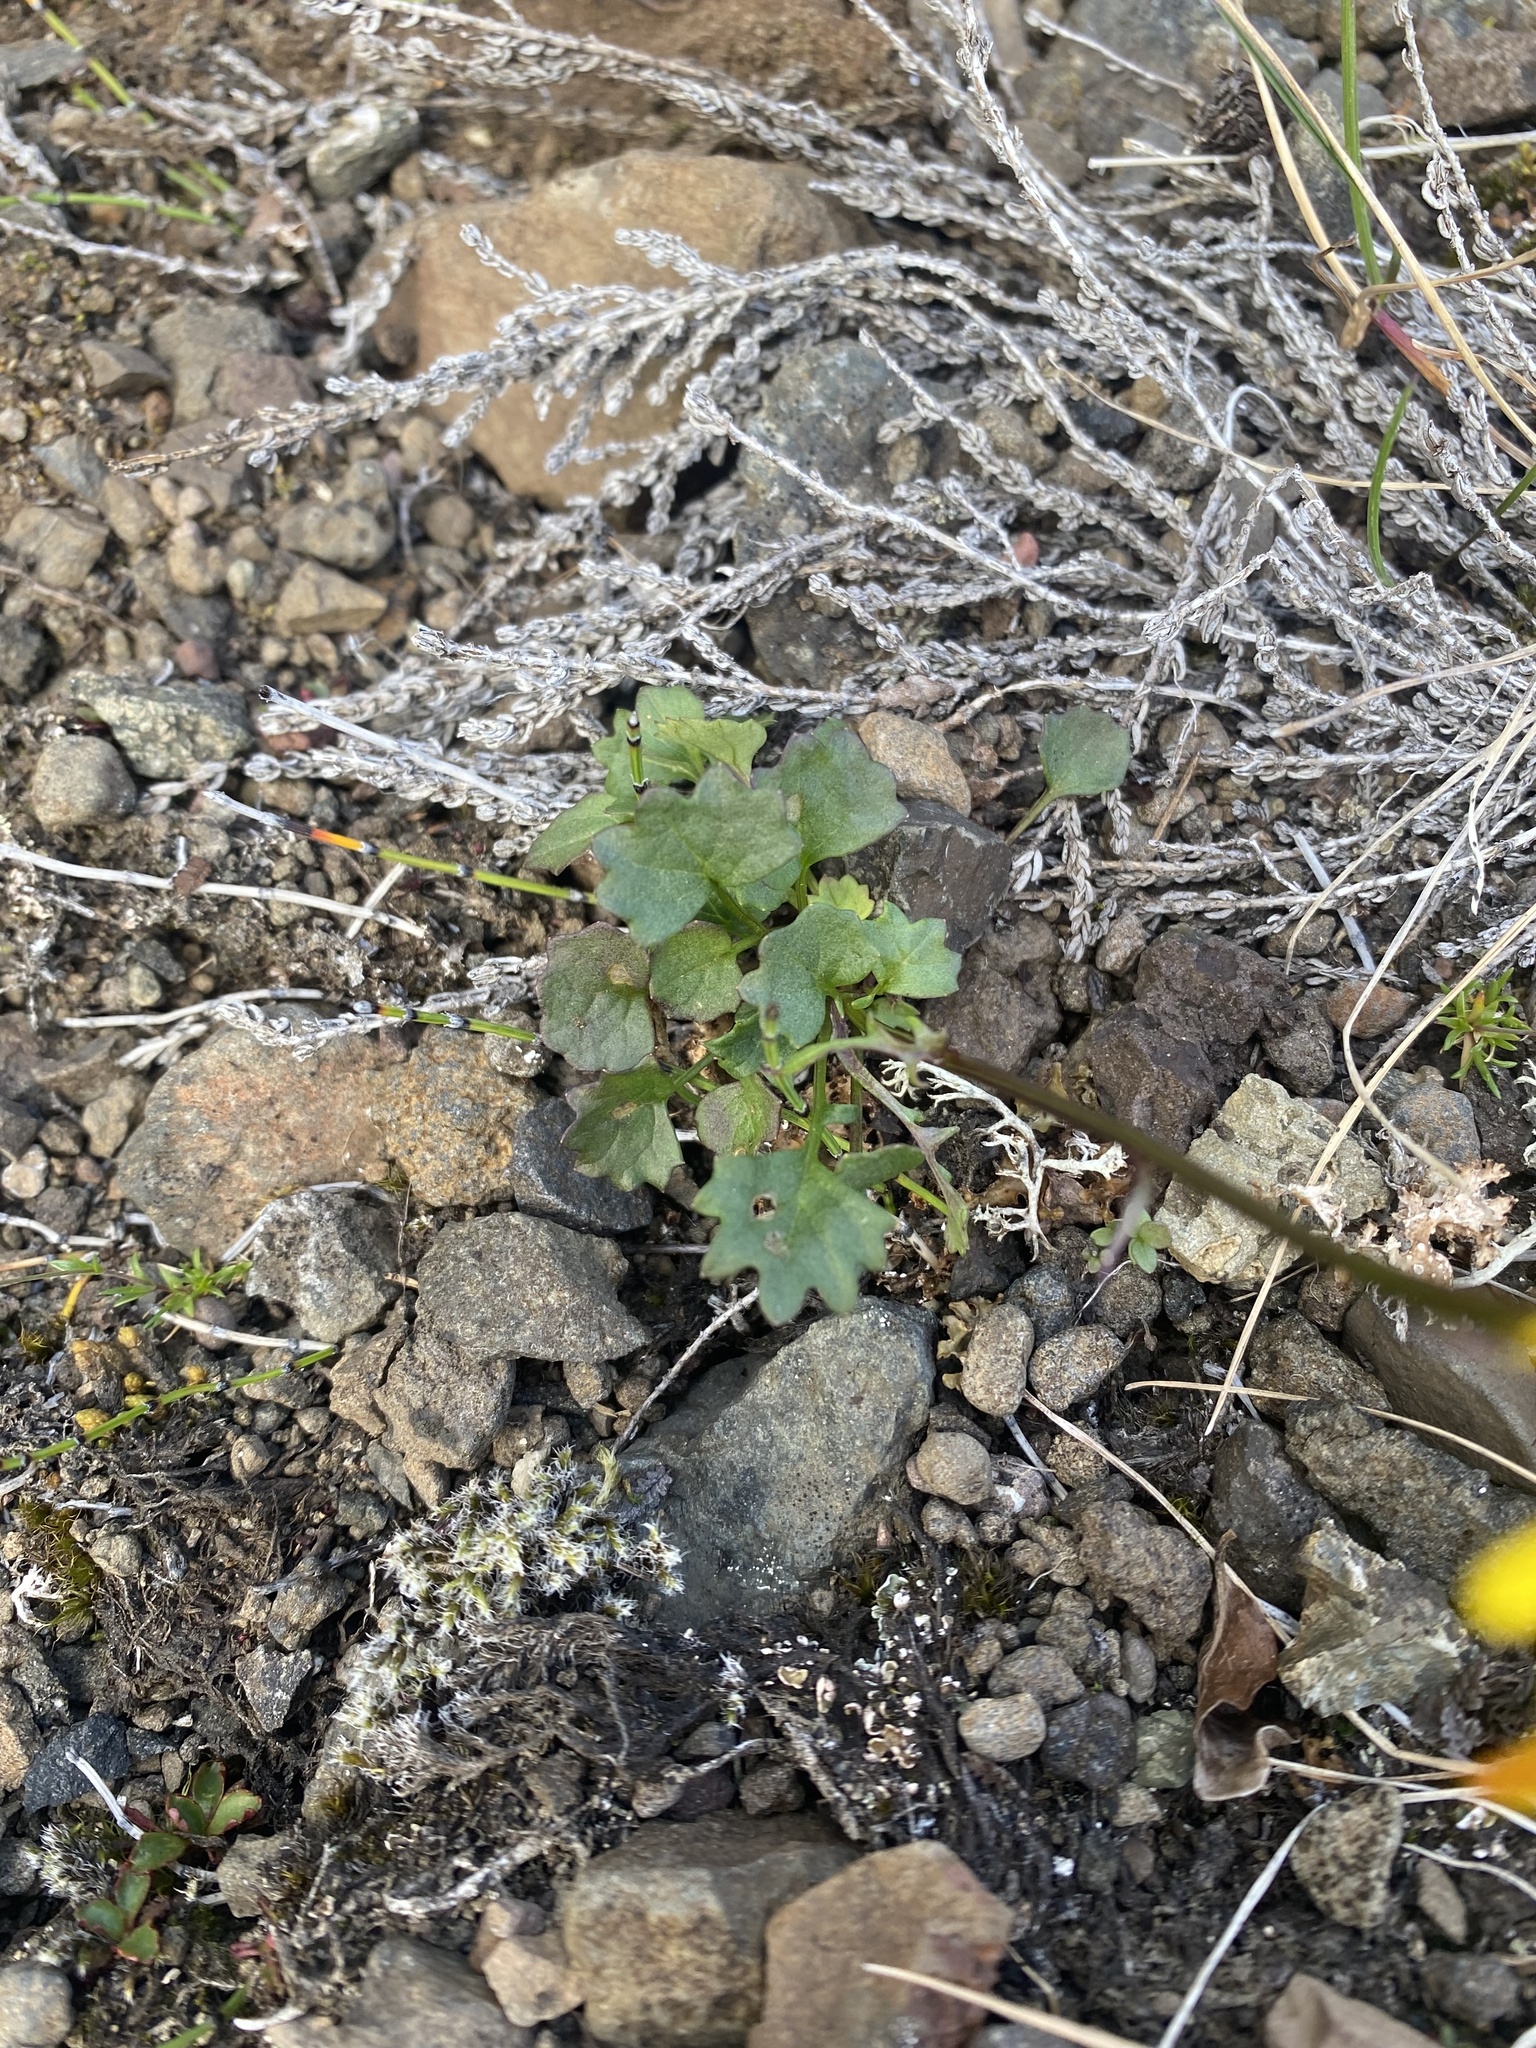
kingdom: Plantae
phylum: Tracheophyta
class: Magnoliopsida
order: Asterales
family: Asteraceae
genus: Packera
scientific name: Packera heterophylla
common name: Arctic butterweed
